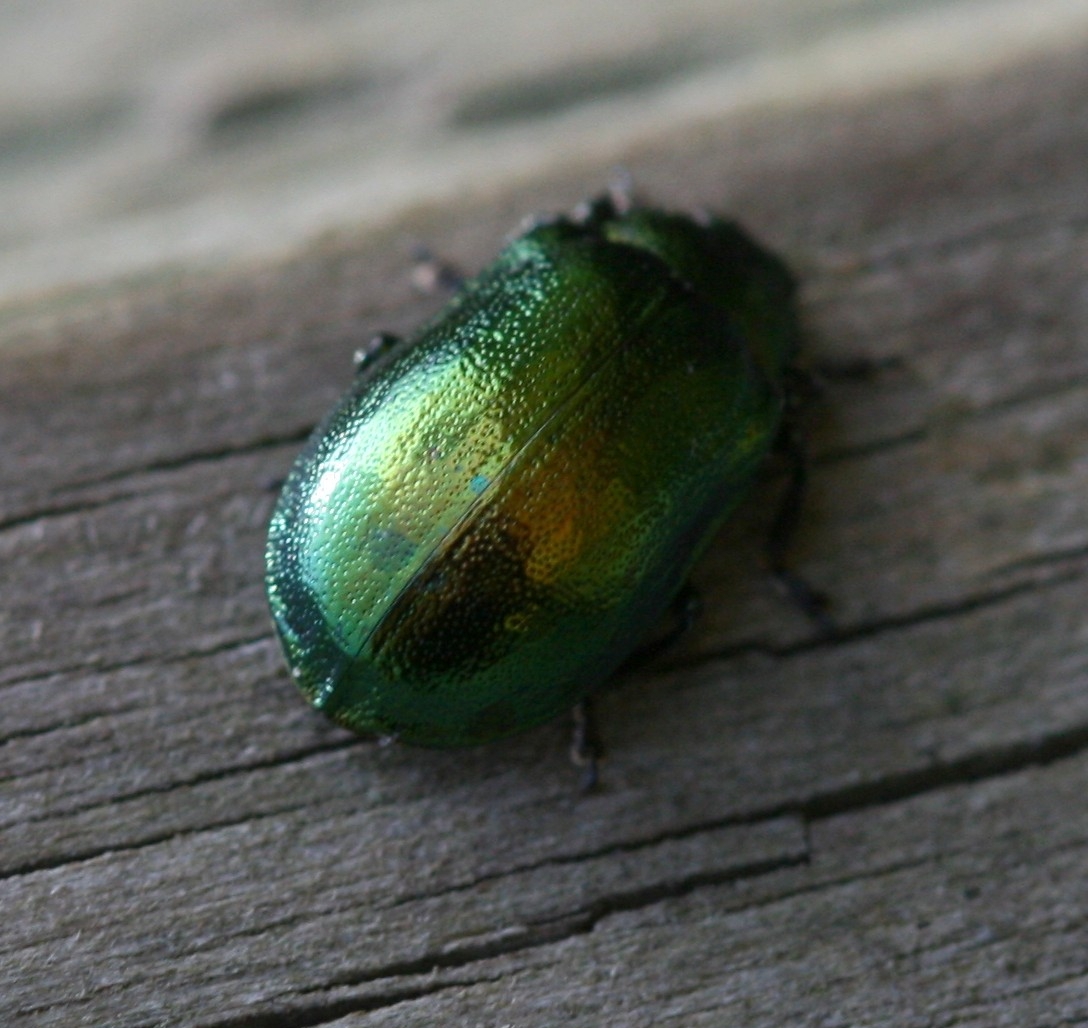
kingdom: Animalia
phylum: Arthropoda
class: Insecta
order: Coleoptera
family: Chrysomelidae
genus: Plagiosterna
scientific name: Plagiosterna aenea
